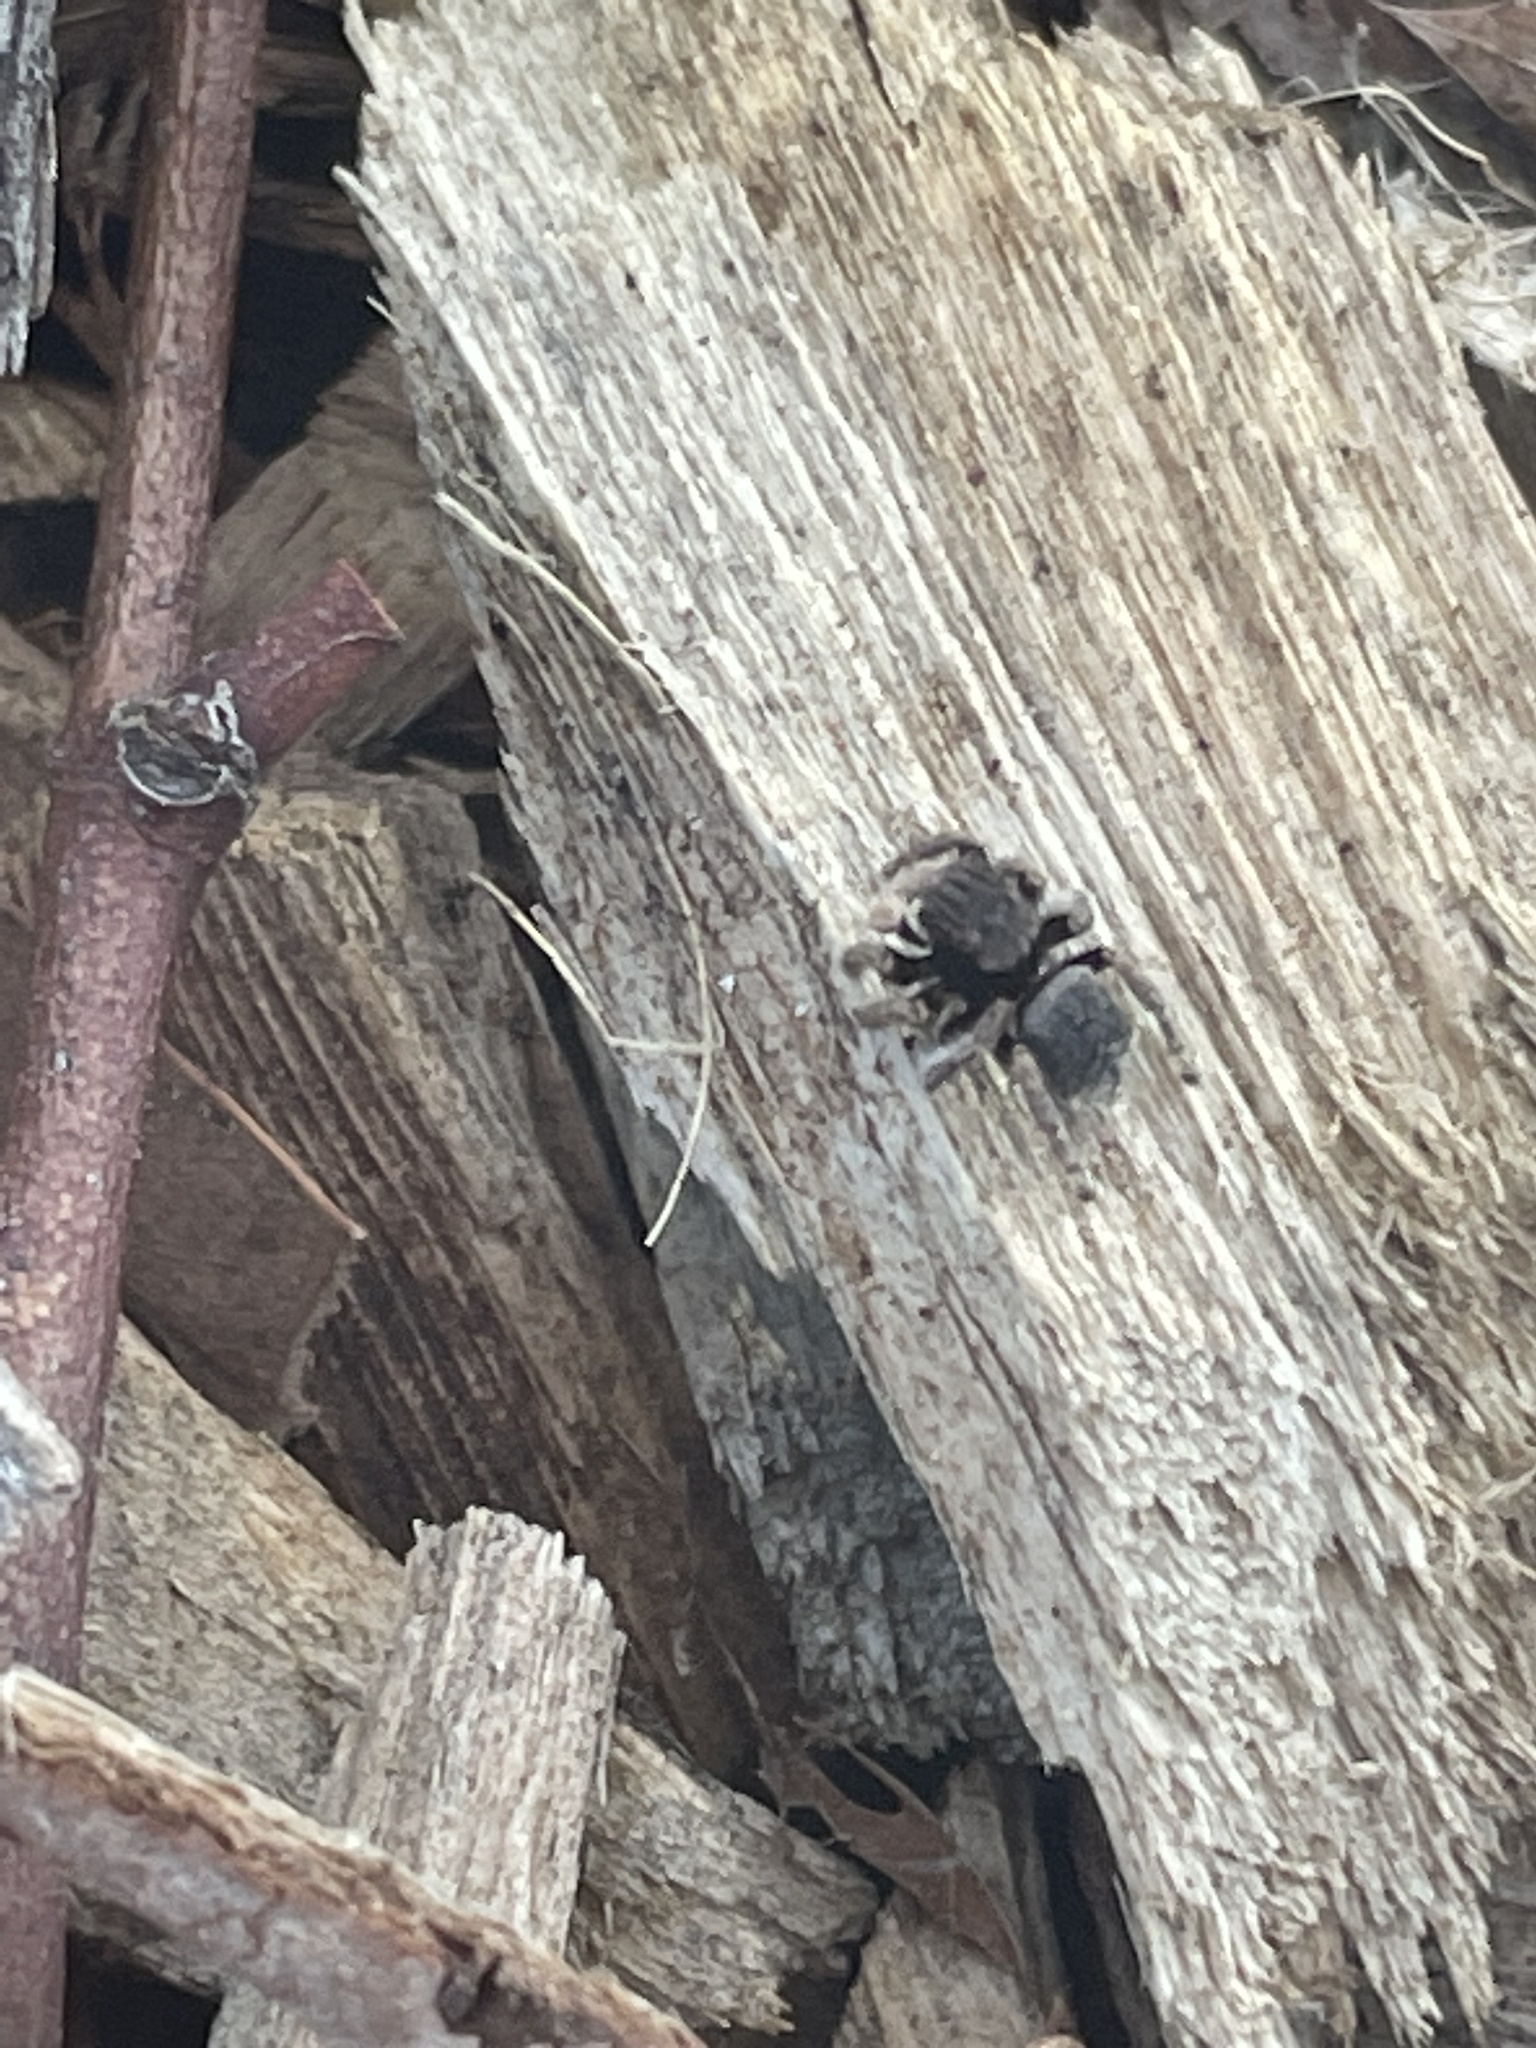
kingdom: Animalia
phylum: Arthropoda
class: Arachnida
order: Araneae
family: Salticidae
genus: Maratus
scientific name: Maratus vespertilio
